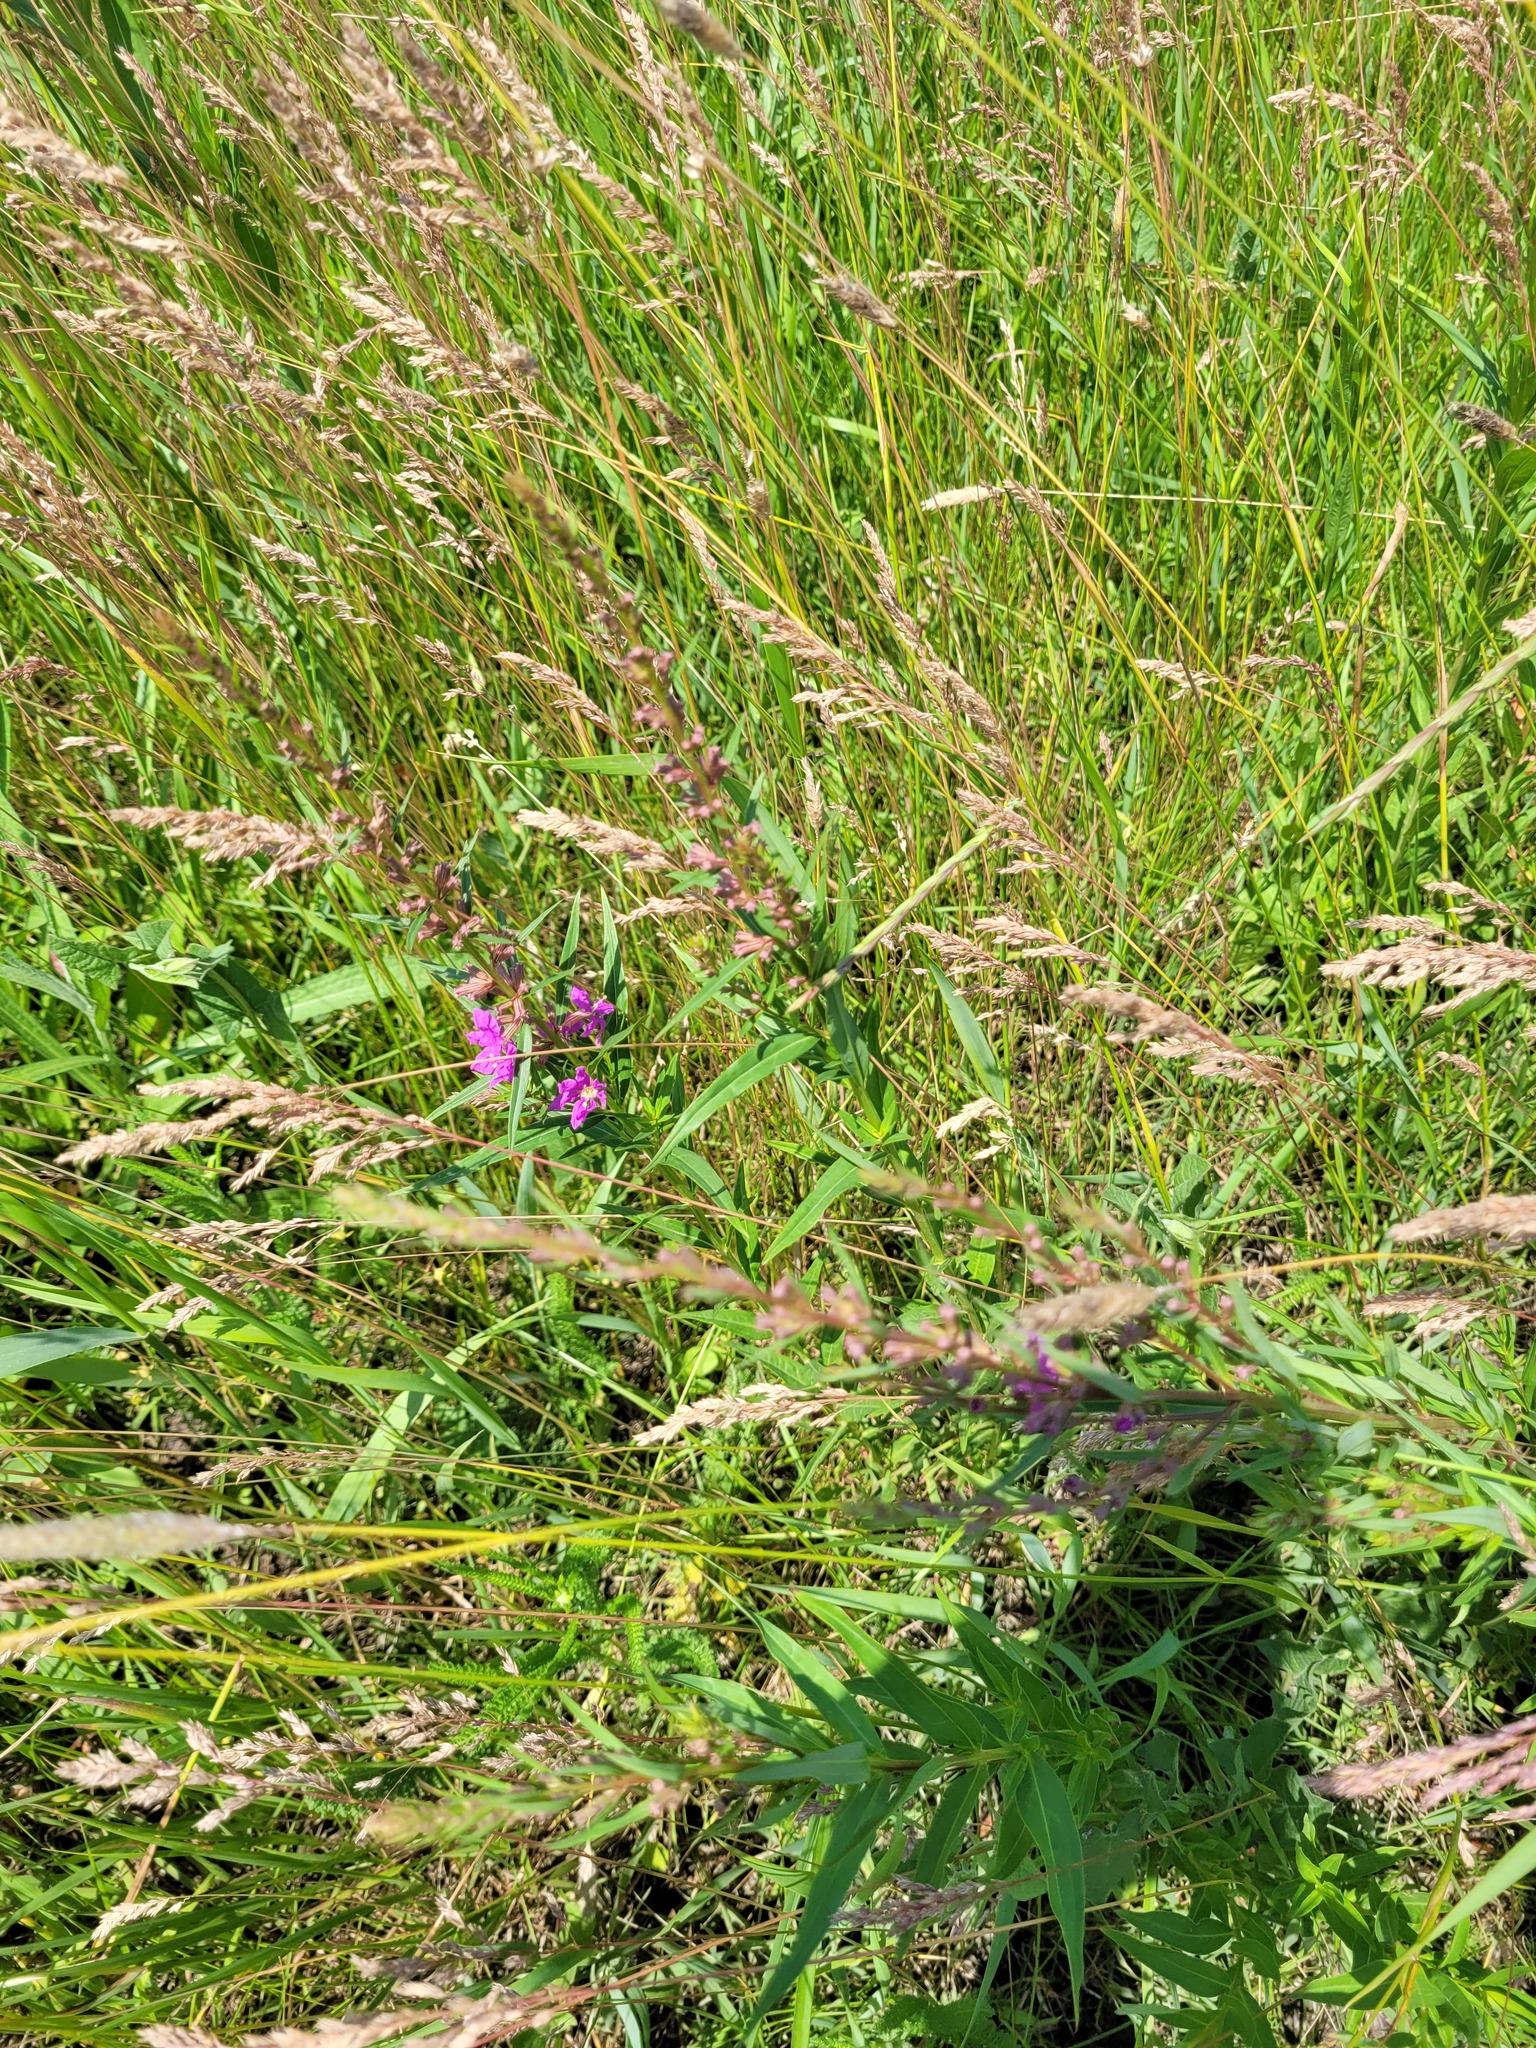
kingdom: Plantae
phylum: Tracheophyta
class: Magnoliopsida
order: Myrtales
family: Lythraceae
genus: Lythrum
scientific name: Lythrum virgatum
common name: European wand loosestrife
